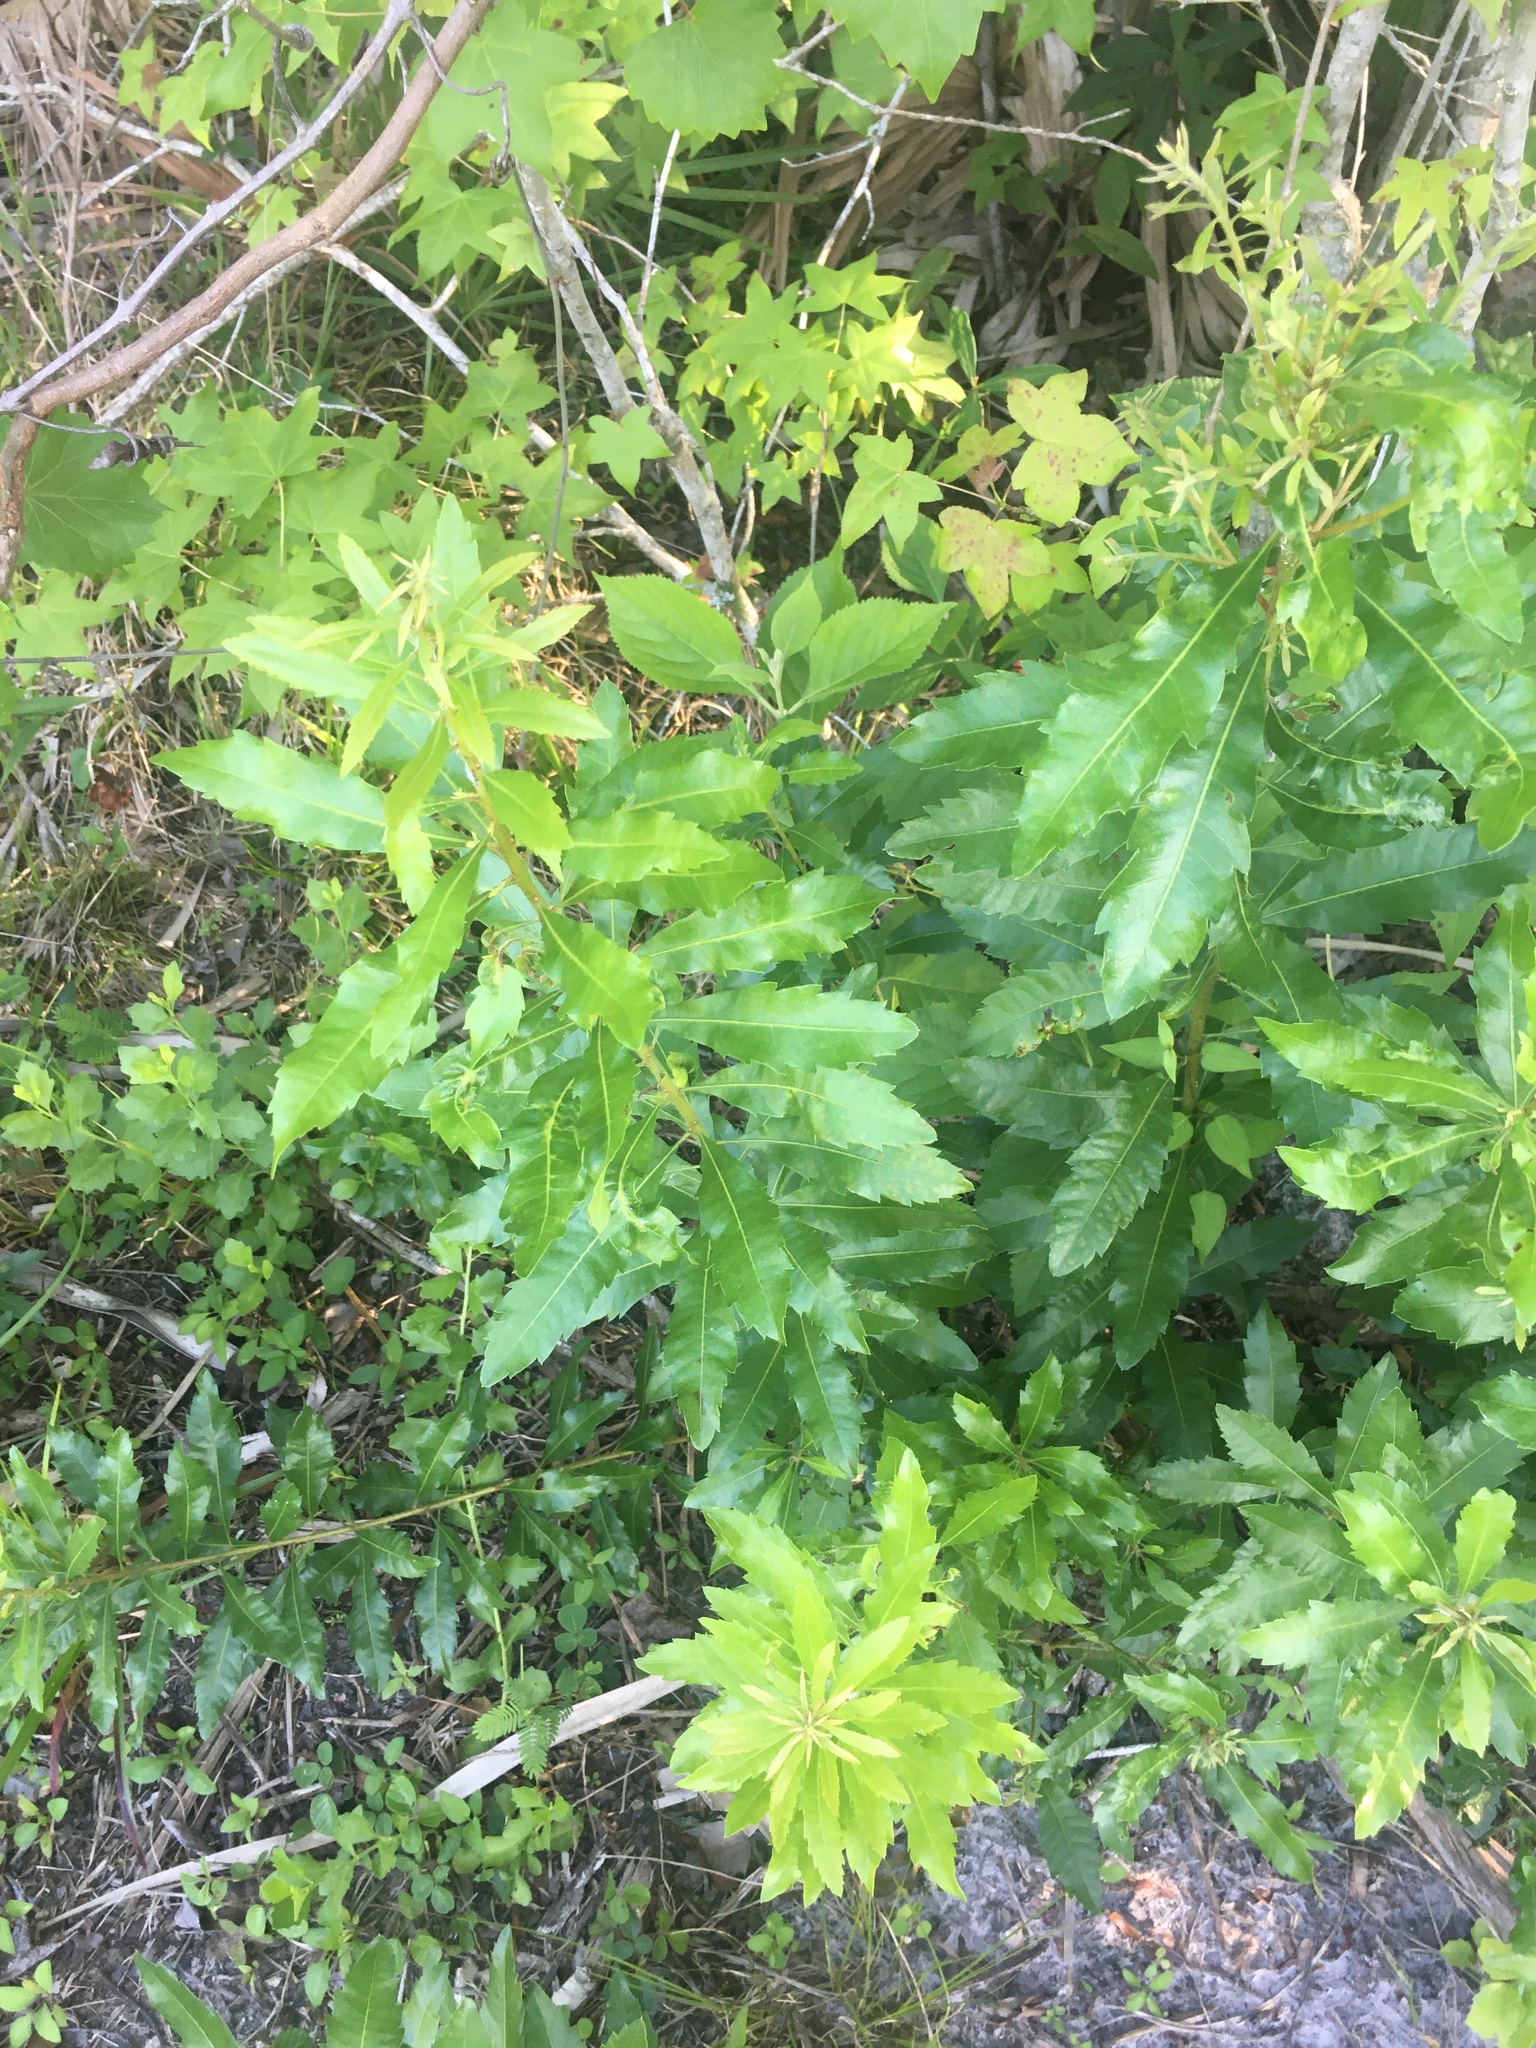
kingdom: Plantae
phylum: Tracheophyta
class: Magnoliopsida
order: Fagales
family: Myricaceae
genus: Morella
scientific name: Morella cerifera
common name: Wax myrtle
